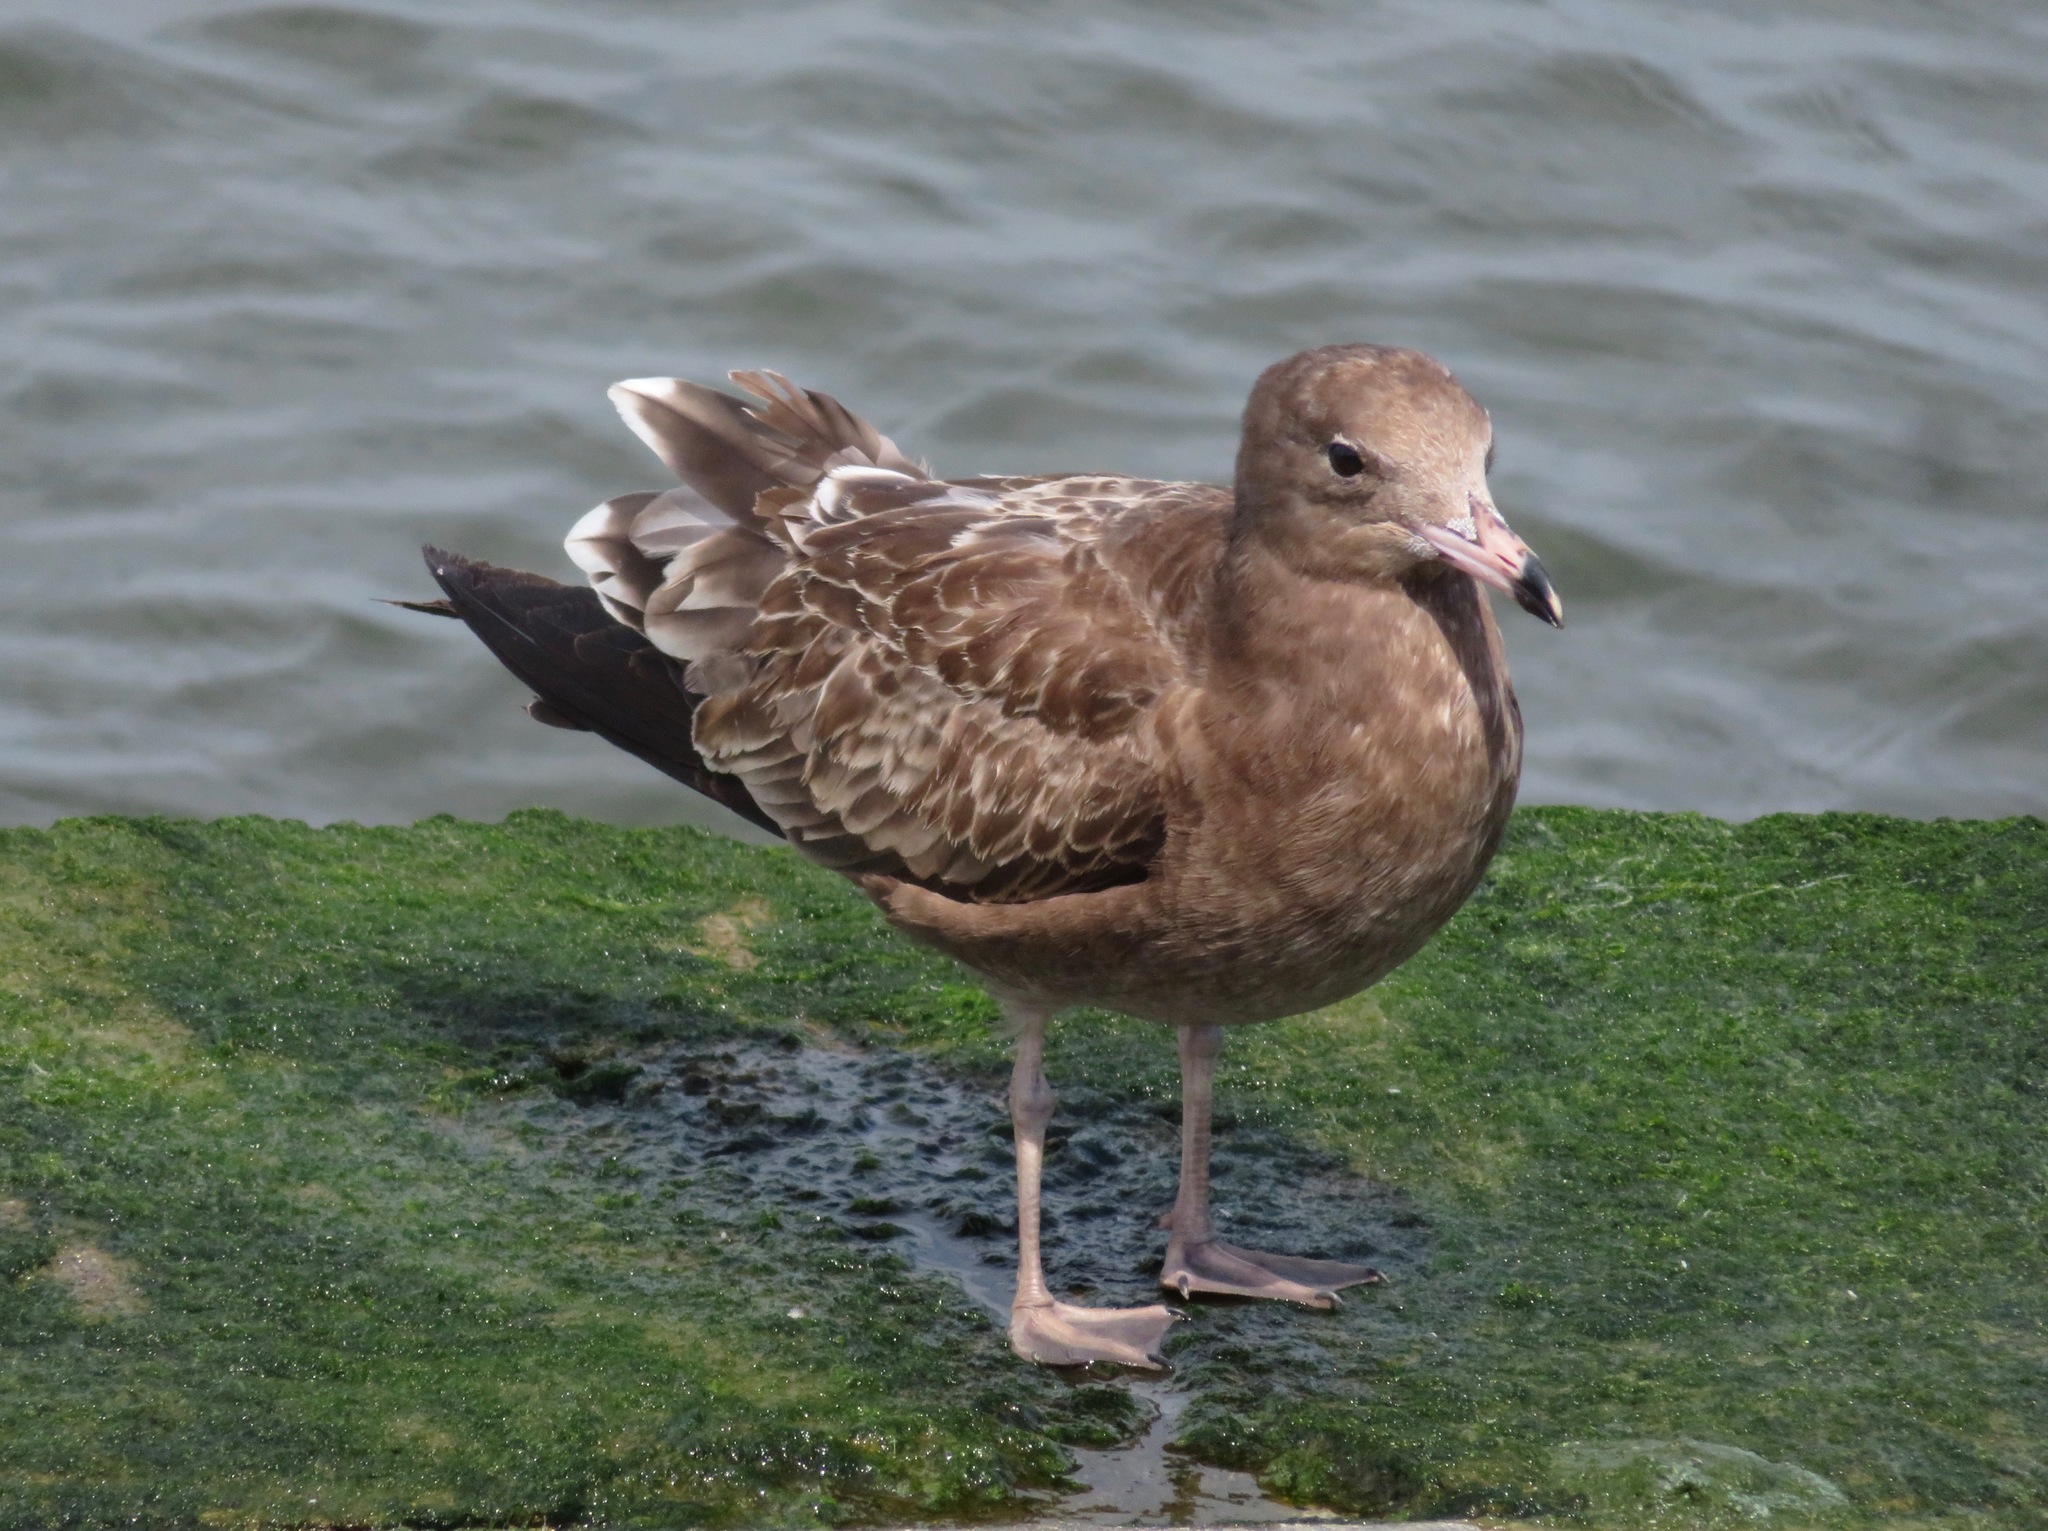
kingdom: Animalia
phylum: Chordata
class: Aves
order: Charadriiformes
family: Laridae
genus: Larus
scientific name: Larus crassirostris
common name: Black-tailed gull
